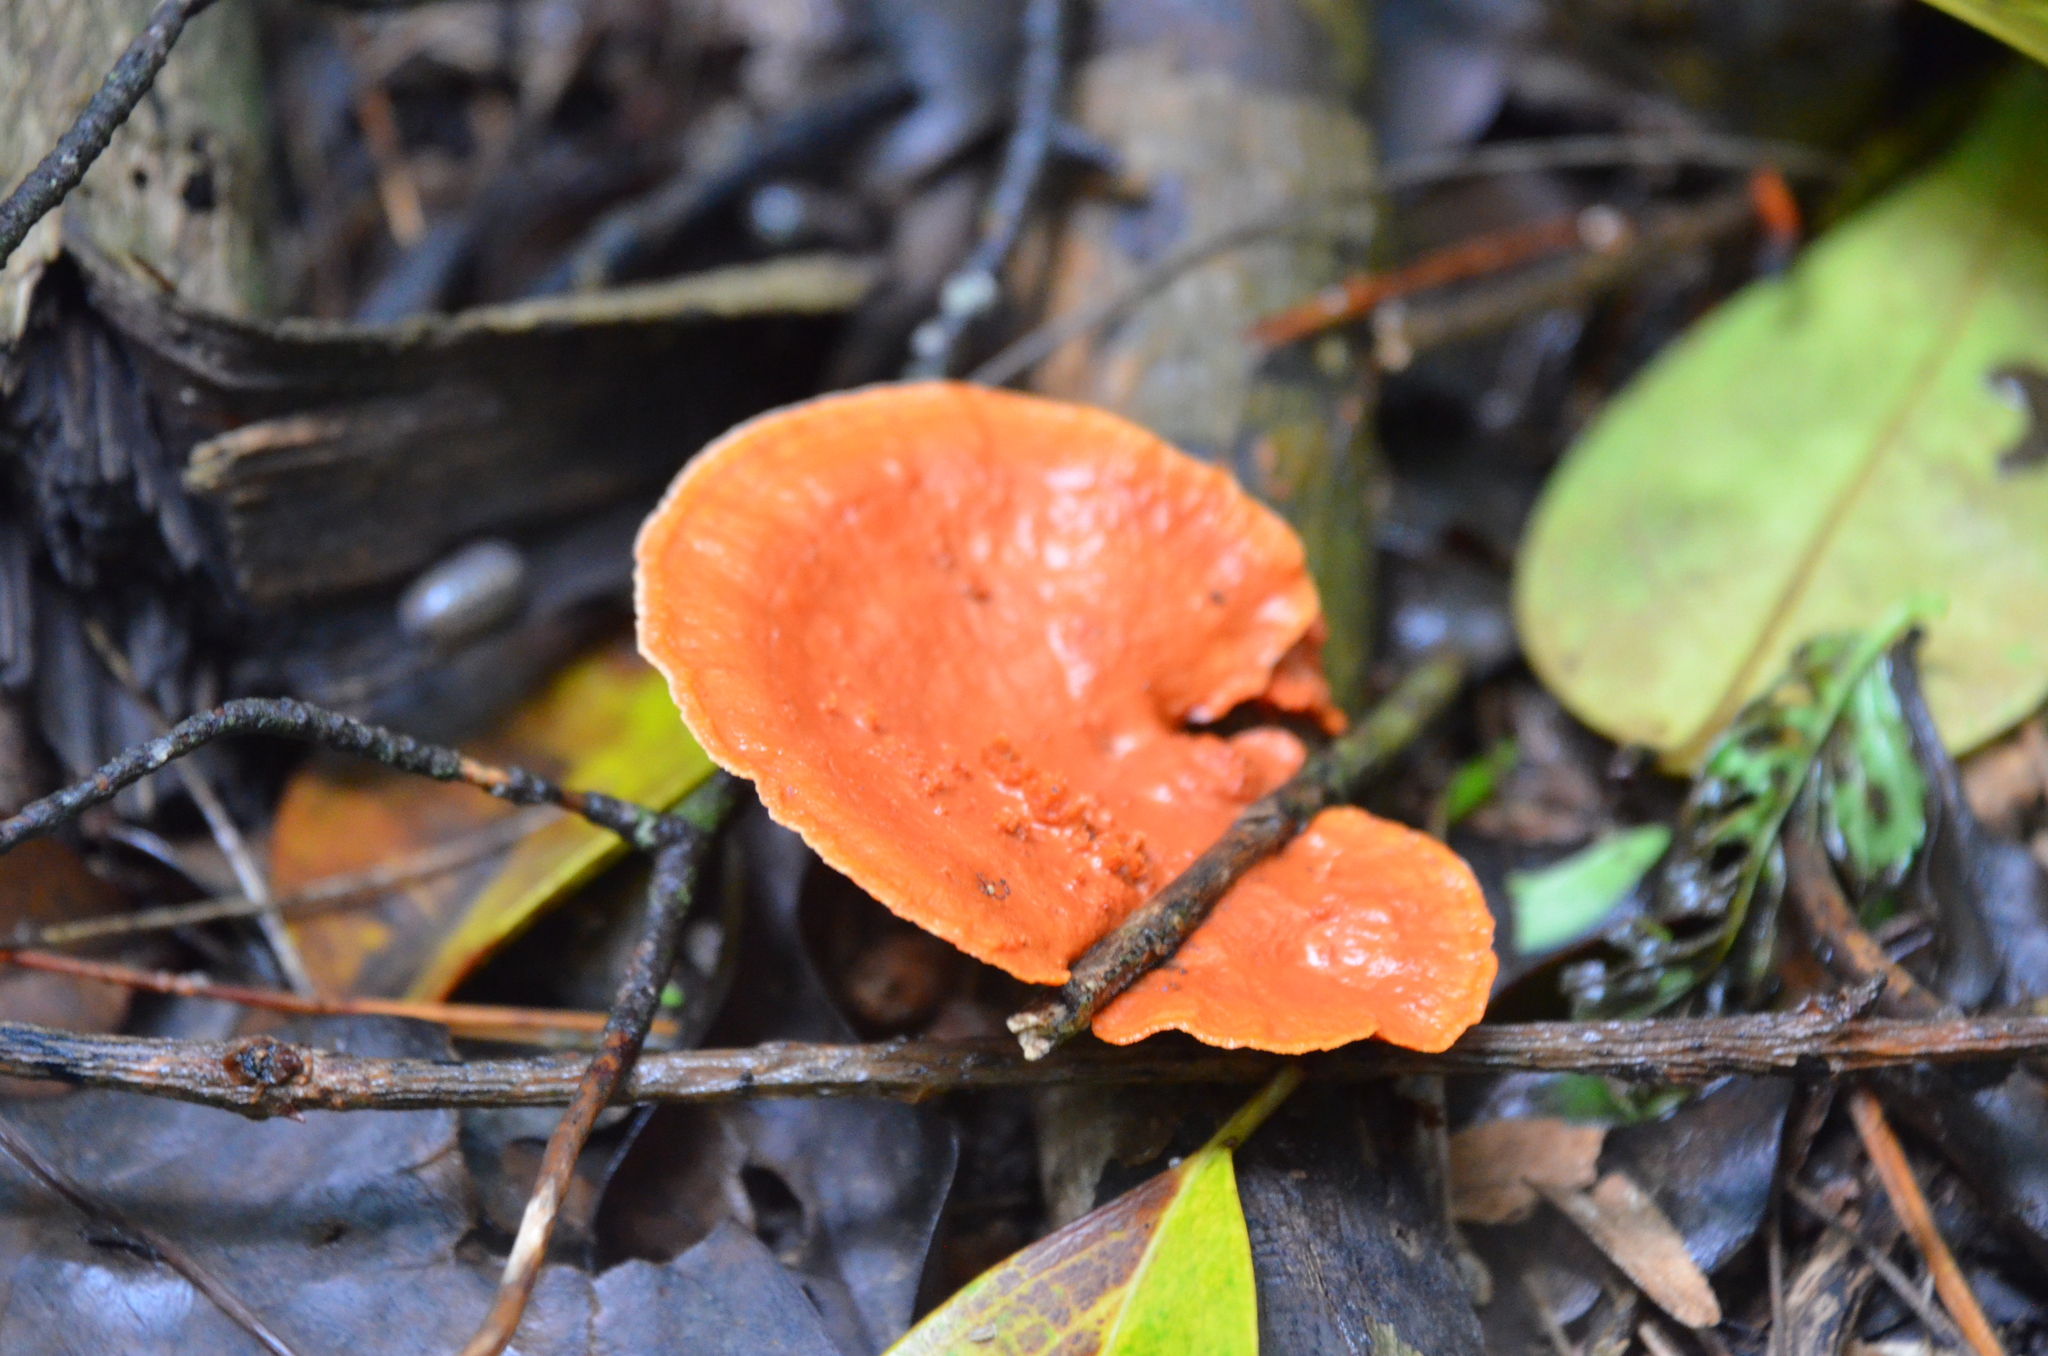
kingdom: Fungi
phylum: Basidiomycota
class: Agaricomycetes
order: Polyporales
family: Polyporaceae
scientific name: Polyporaceae
